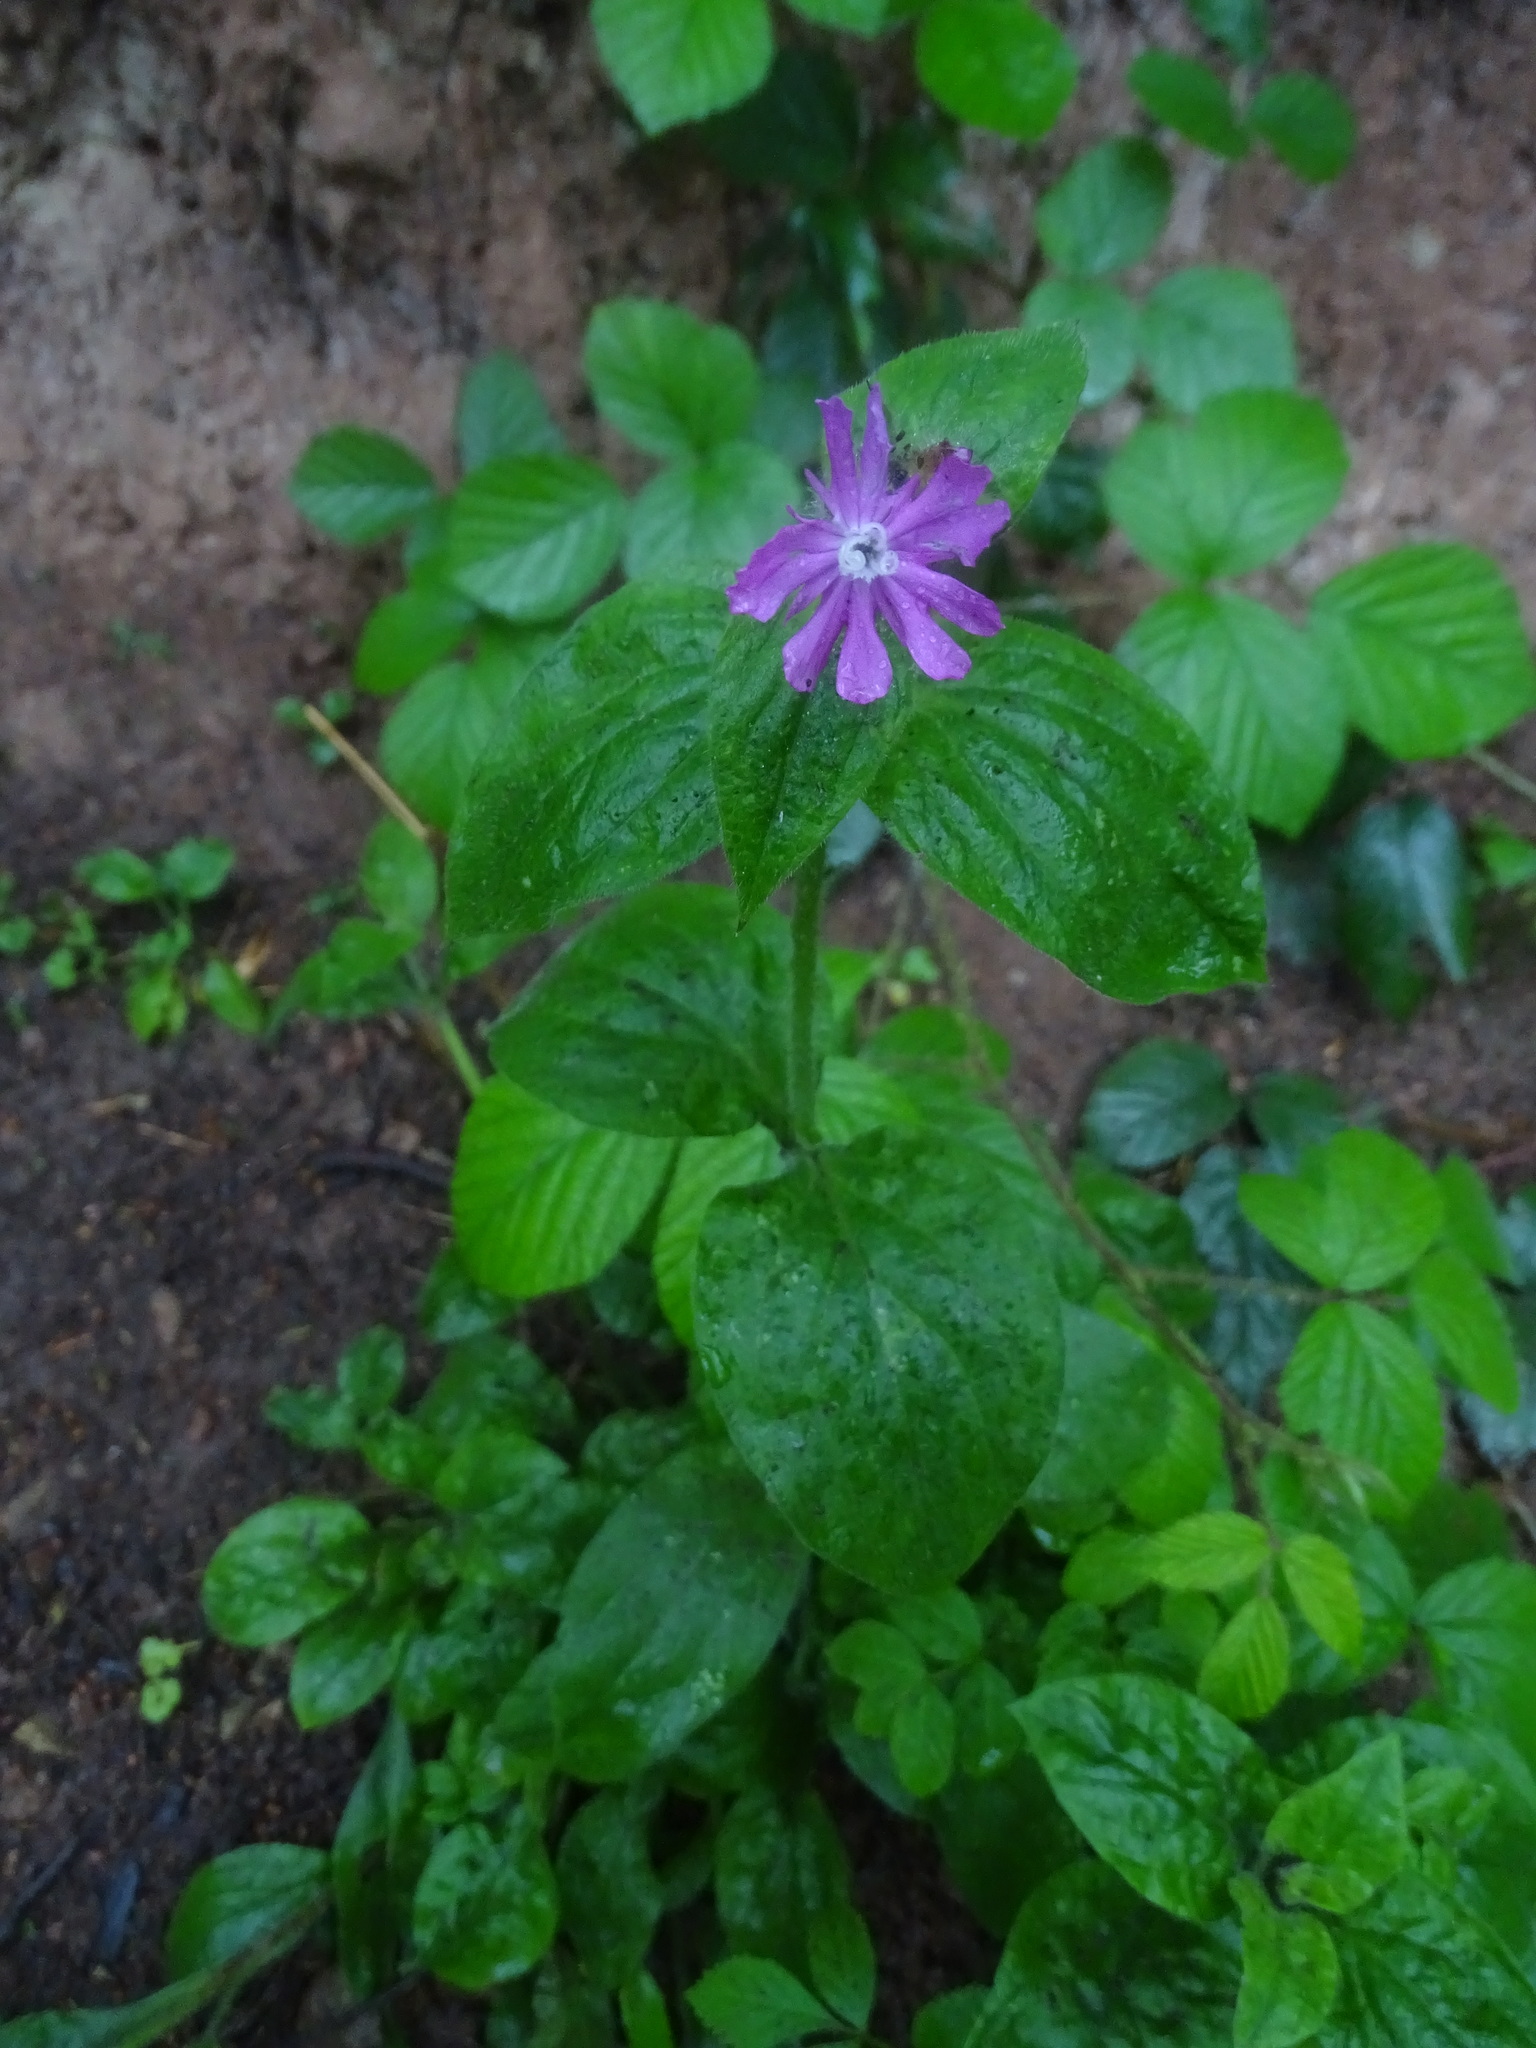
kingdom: Plantae
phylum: Tracheophyta
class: Magnoliopsida
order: Caryophyllales
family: Caryophyllaceae
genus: Silene
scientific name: Silene dioica
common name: Red campion
